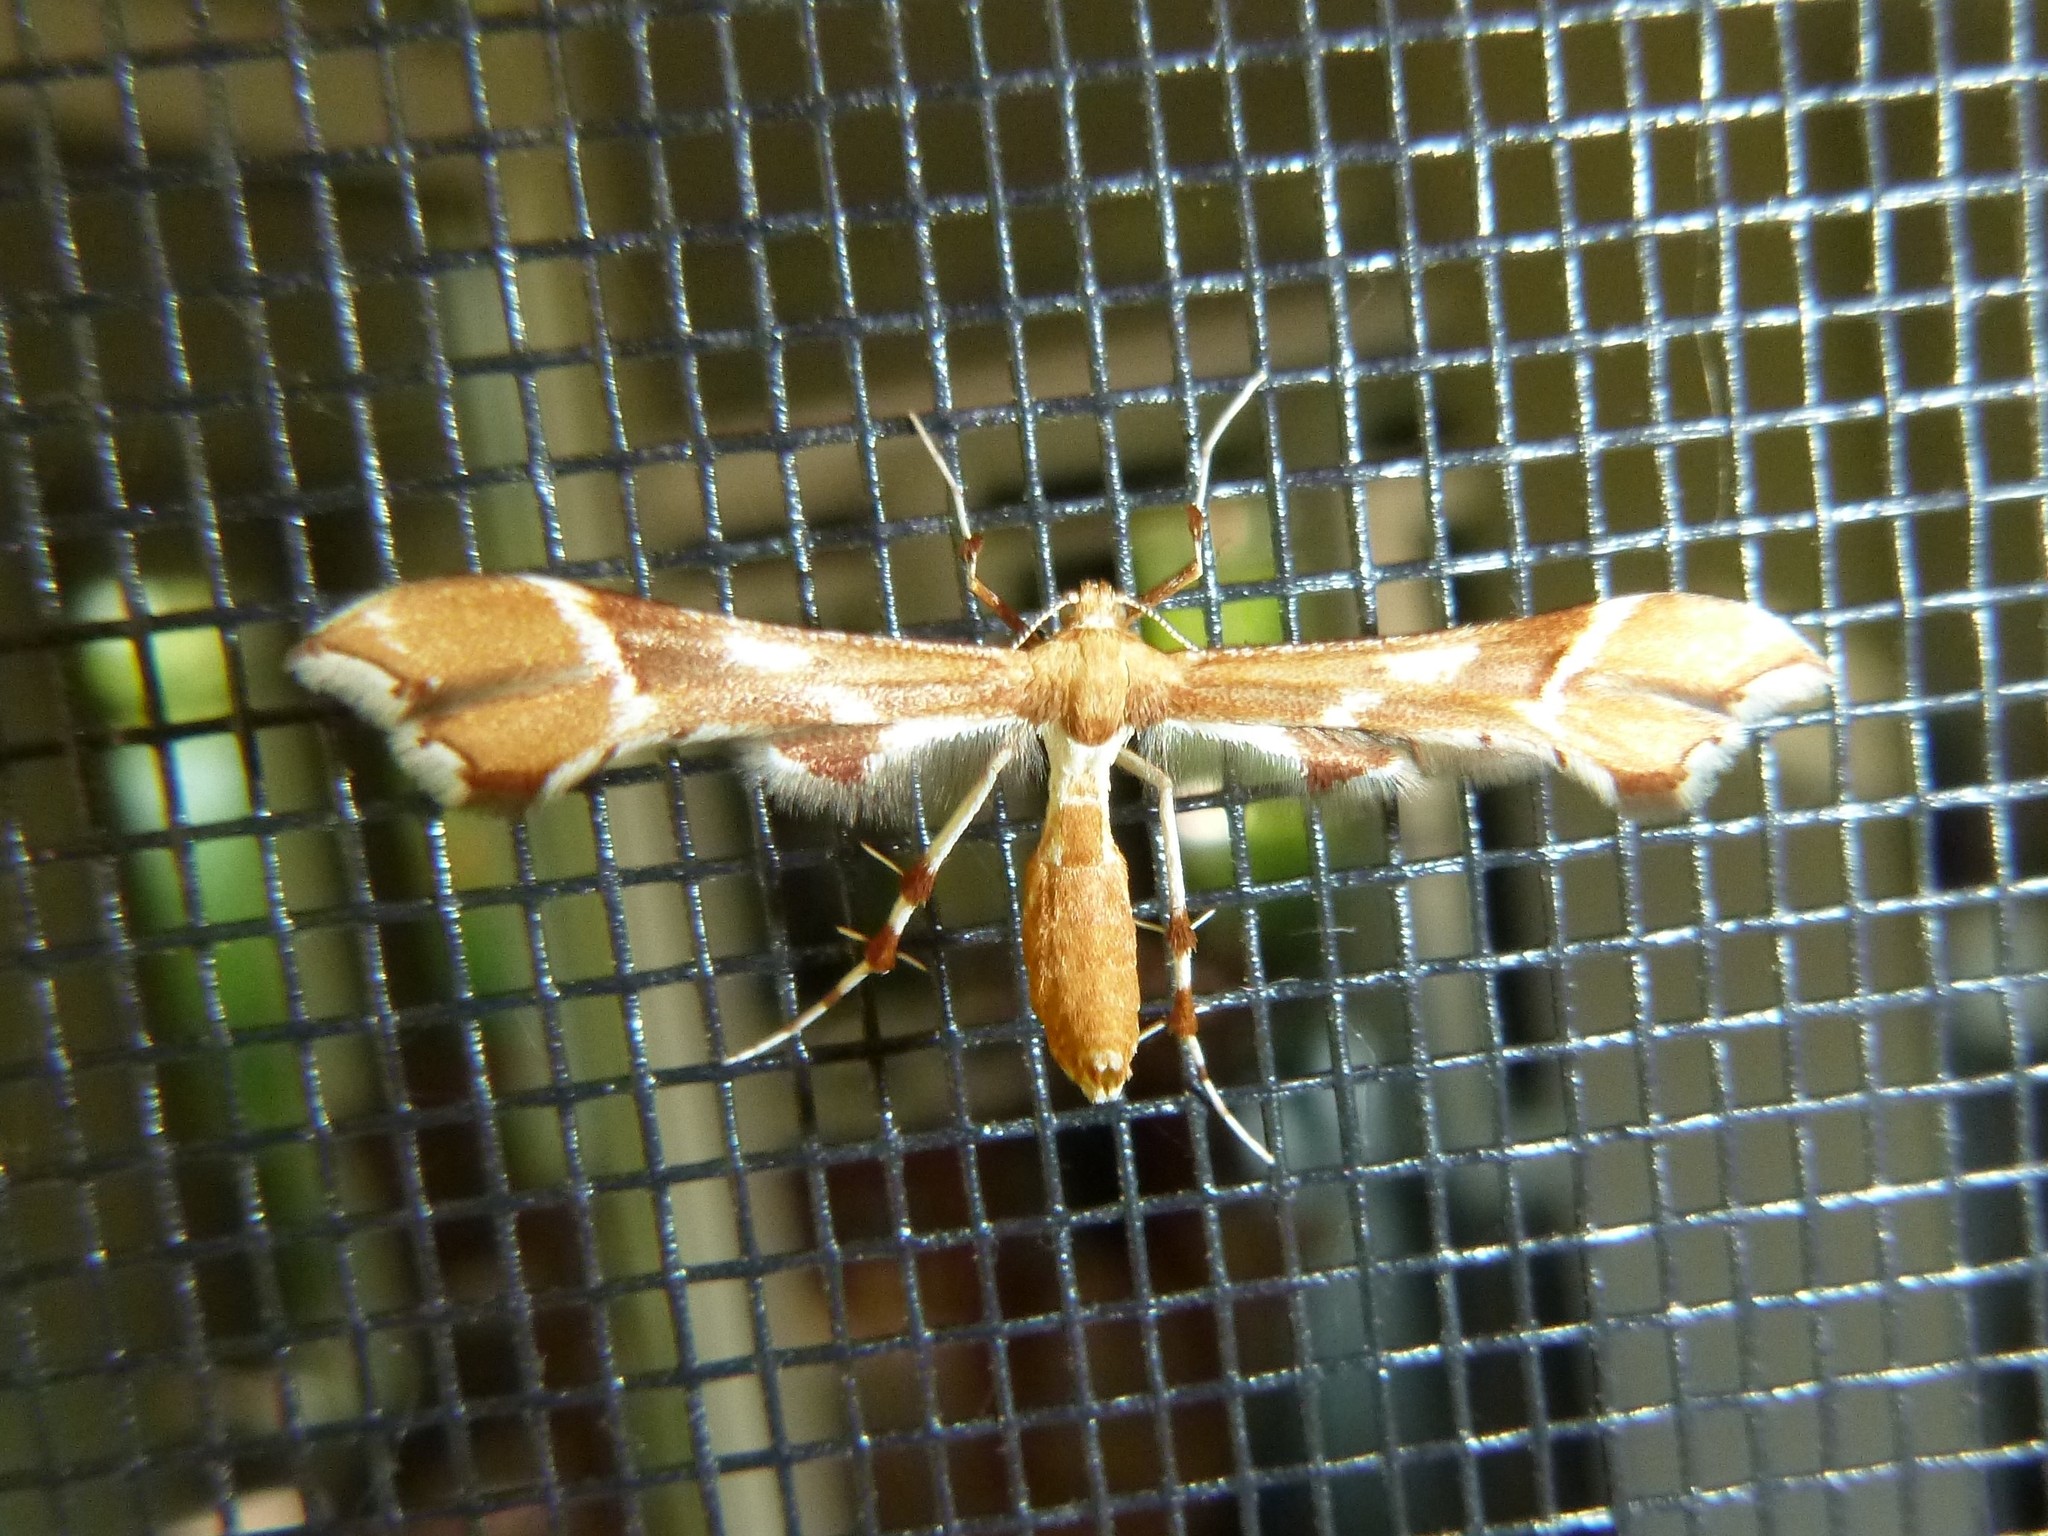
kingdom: Animalia
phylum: Arthropoda
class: Insecta
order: Lepidoptera
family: Pterophoridae
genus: Cnaemidophorus
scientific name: Cnaemidophorus rhododactyla
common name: Rose plume
